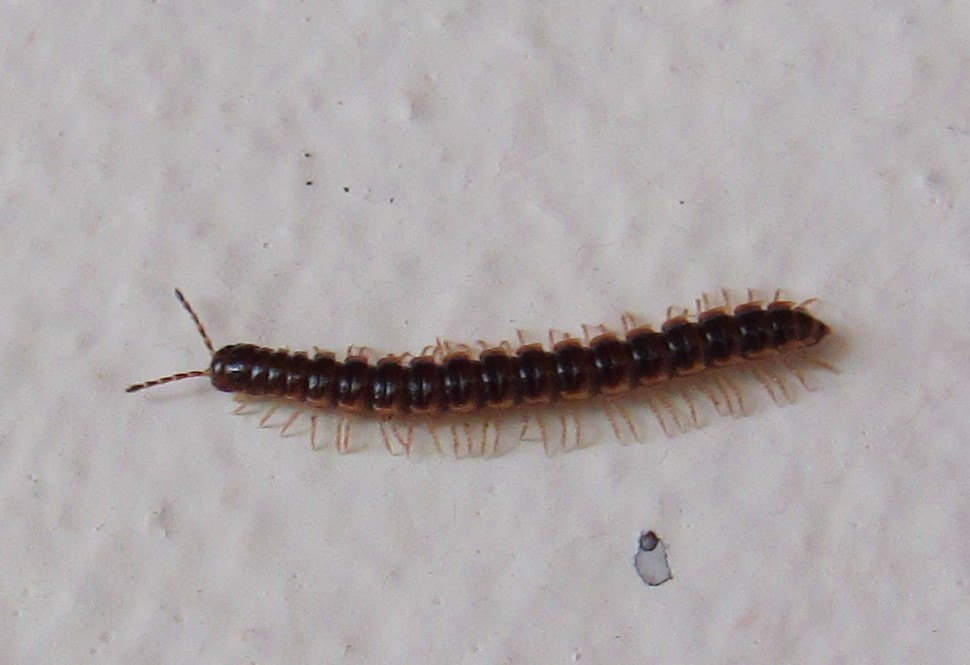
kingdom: Animalia
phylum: Arthropoda
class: Diplopoda
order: Polydesmida
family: Paradoxosomatidae
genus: Oxidus
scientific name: Oxidus gracilis
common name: Greenhouse millipede
